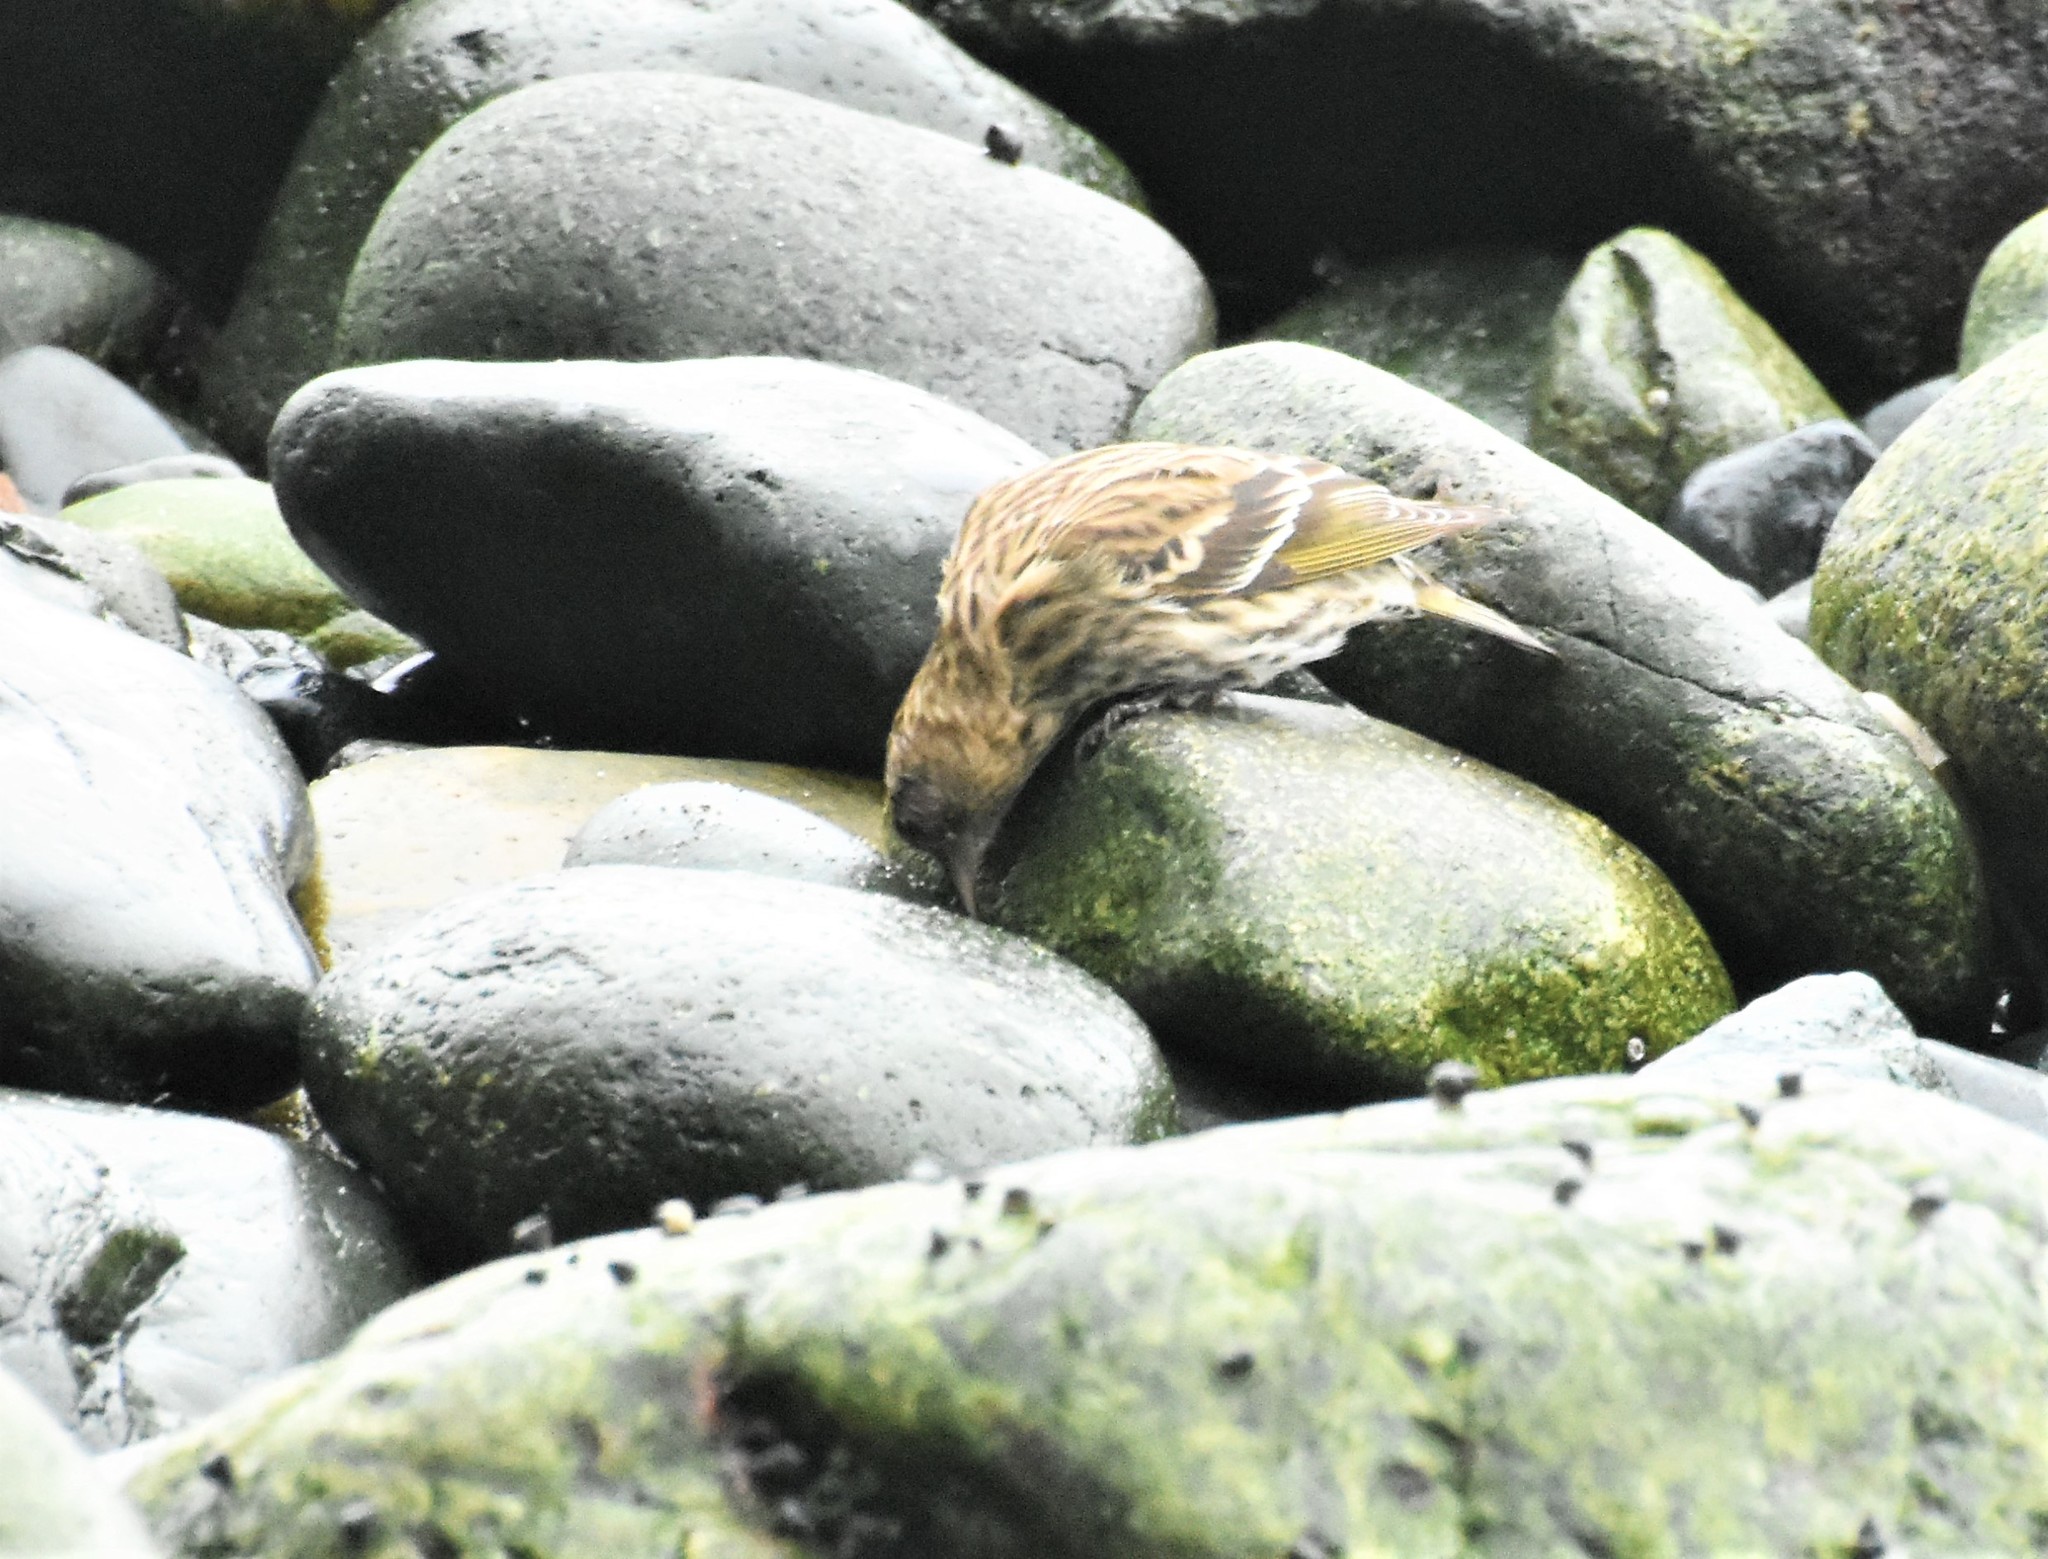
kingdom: Animalia
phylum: Chordata
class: Aves
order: Passeriformes
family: Fringillidae
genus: Spinus
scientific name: Spinus pinus
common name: Pine siskin
